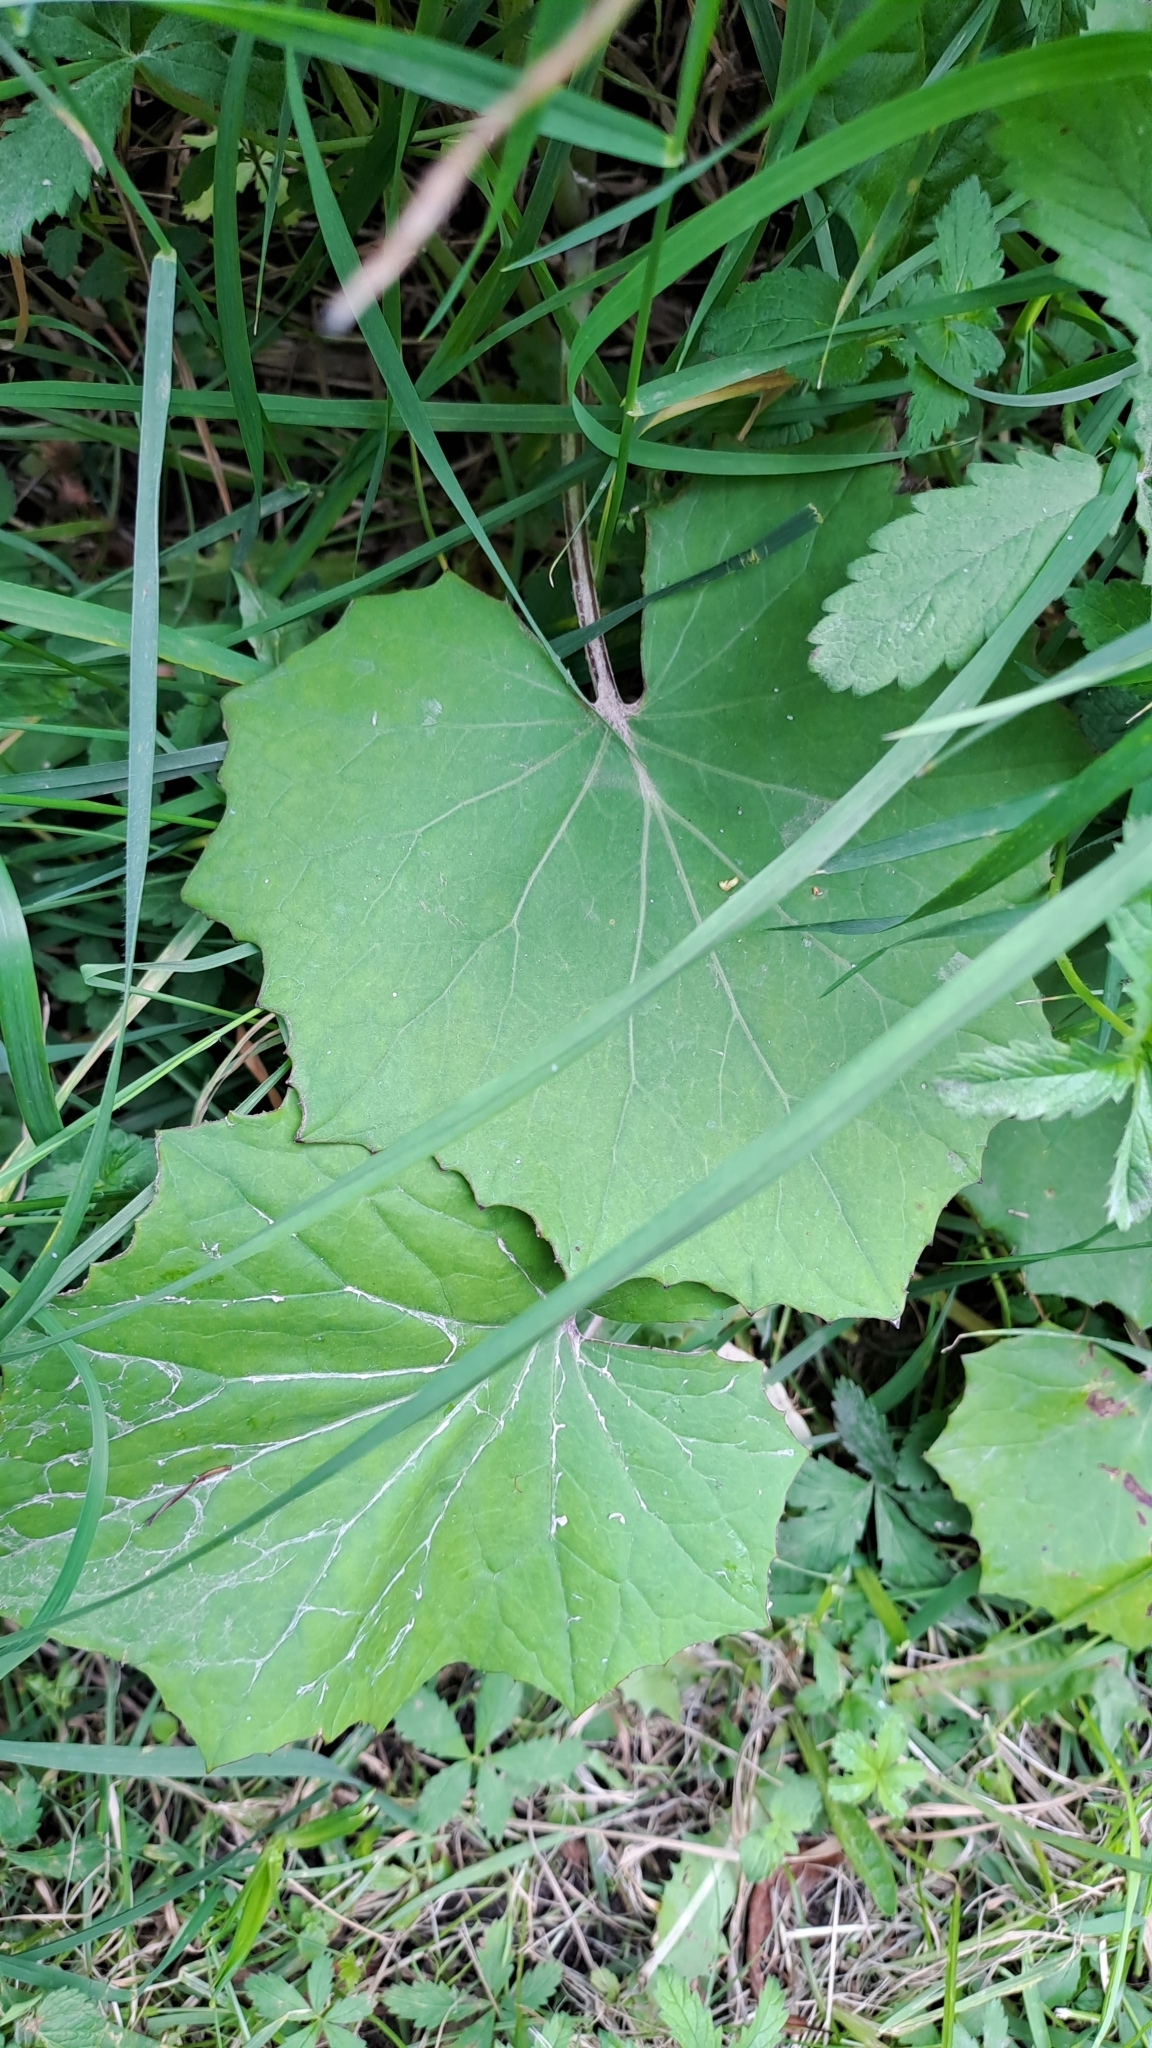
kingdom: Plantae
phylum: Tracheophyta
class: Magnoliopsida
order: Asterales
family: Asteraceae
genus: Tussilago
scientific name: Tussilago farfara
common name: Coltsfoot
